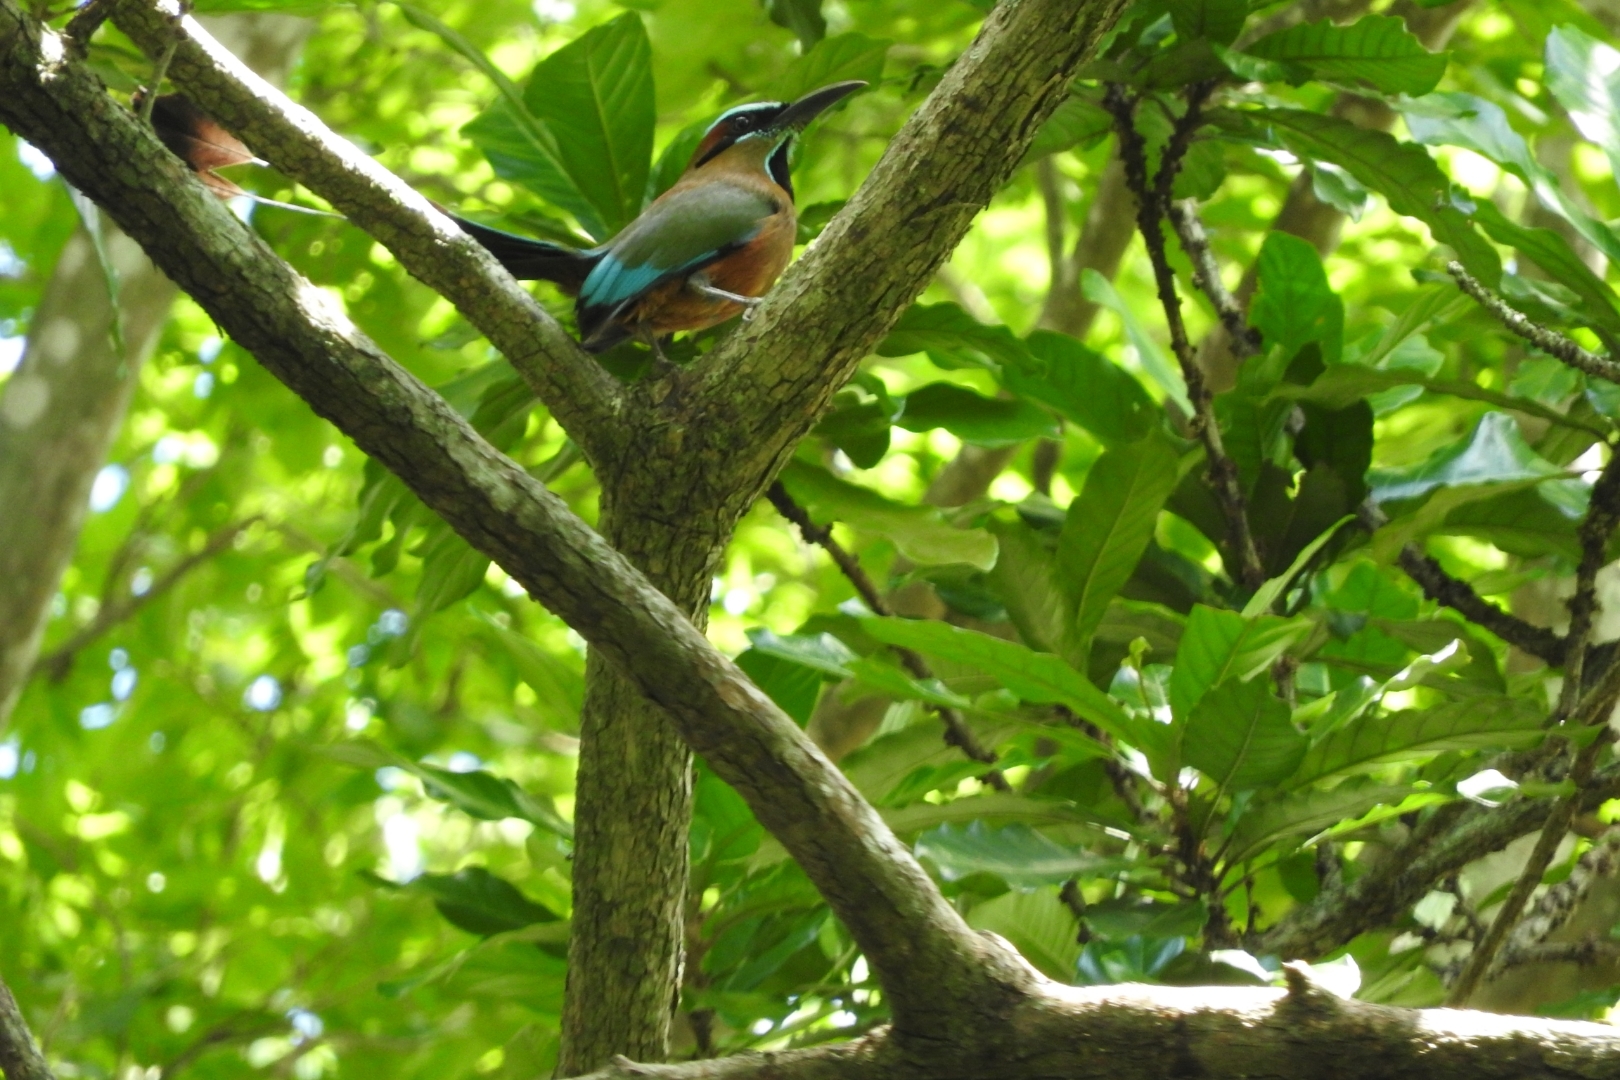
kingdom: Animalia
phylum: Chordata
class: Aves
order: Coraciiformes
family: Momotidae
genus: Eumomota
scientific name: Eumomota superciliosa
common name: Turquoise-browed motmot
